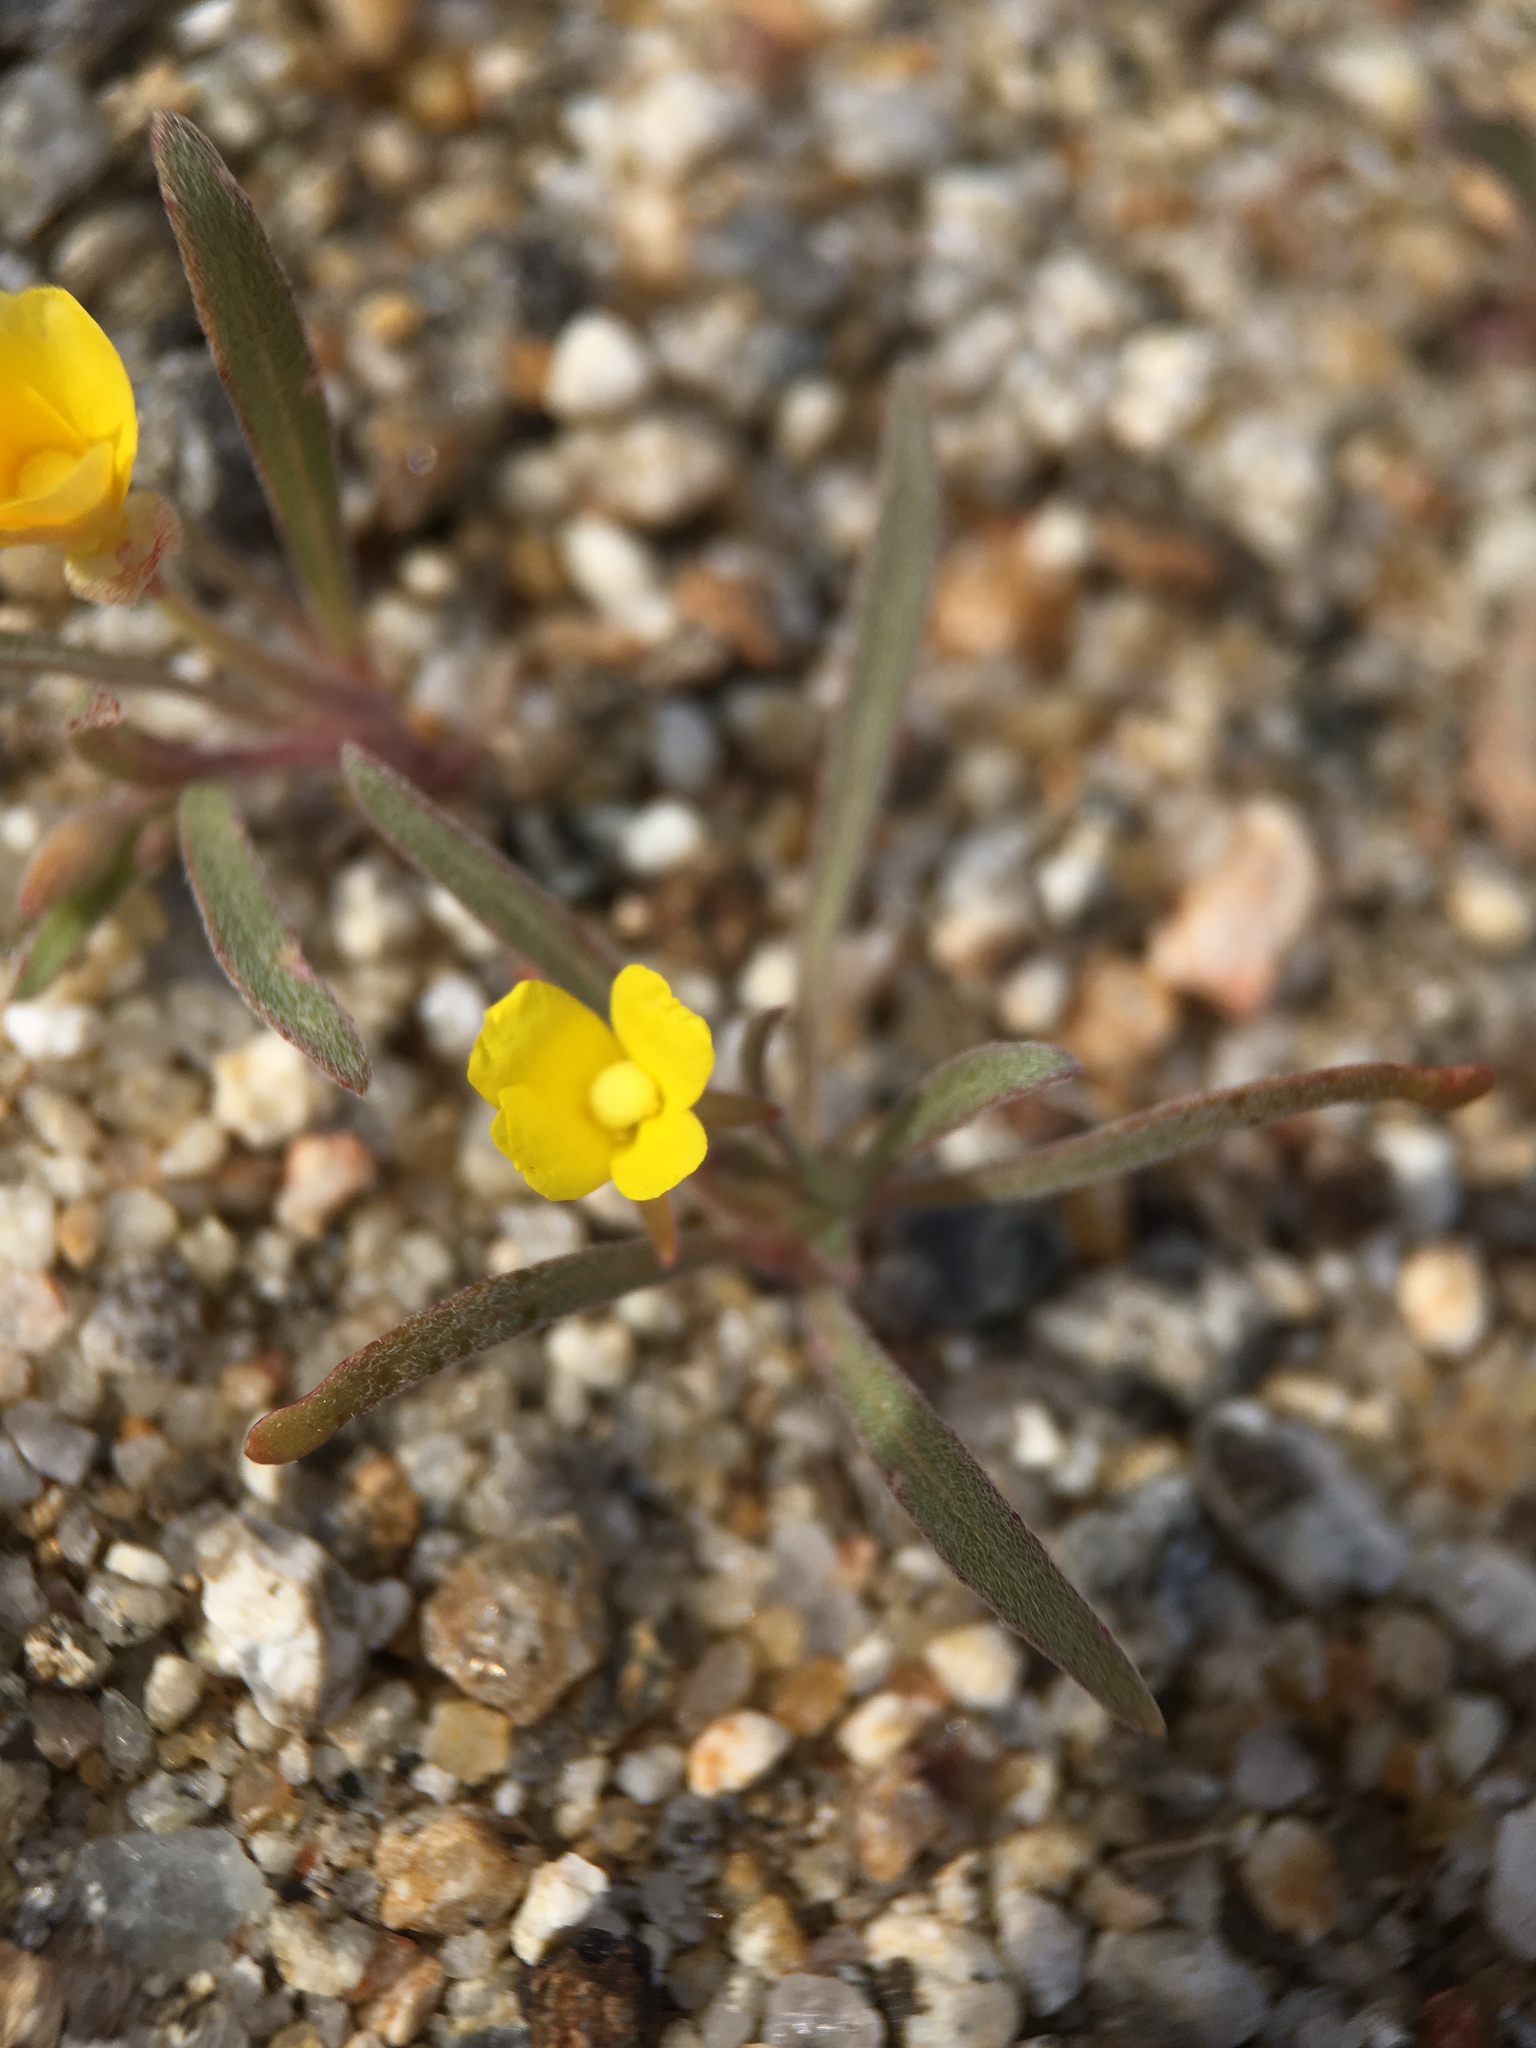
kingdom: Plantae
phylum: Tracheophyta
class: Magnoliopsida
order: Myrtales
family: Onagraceae
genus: Camissoniopsis
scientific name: Camissoniopsis pallida
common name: Paleyellow suncup
